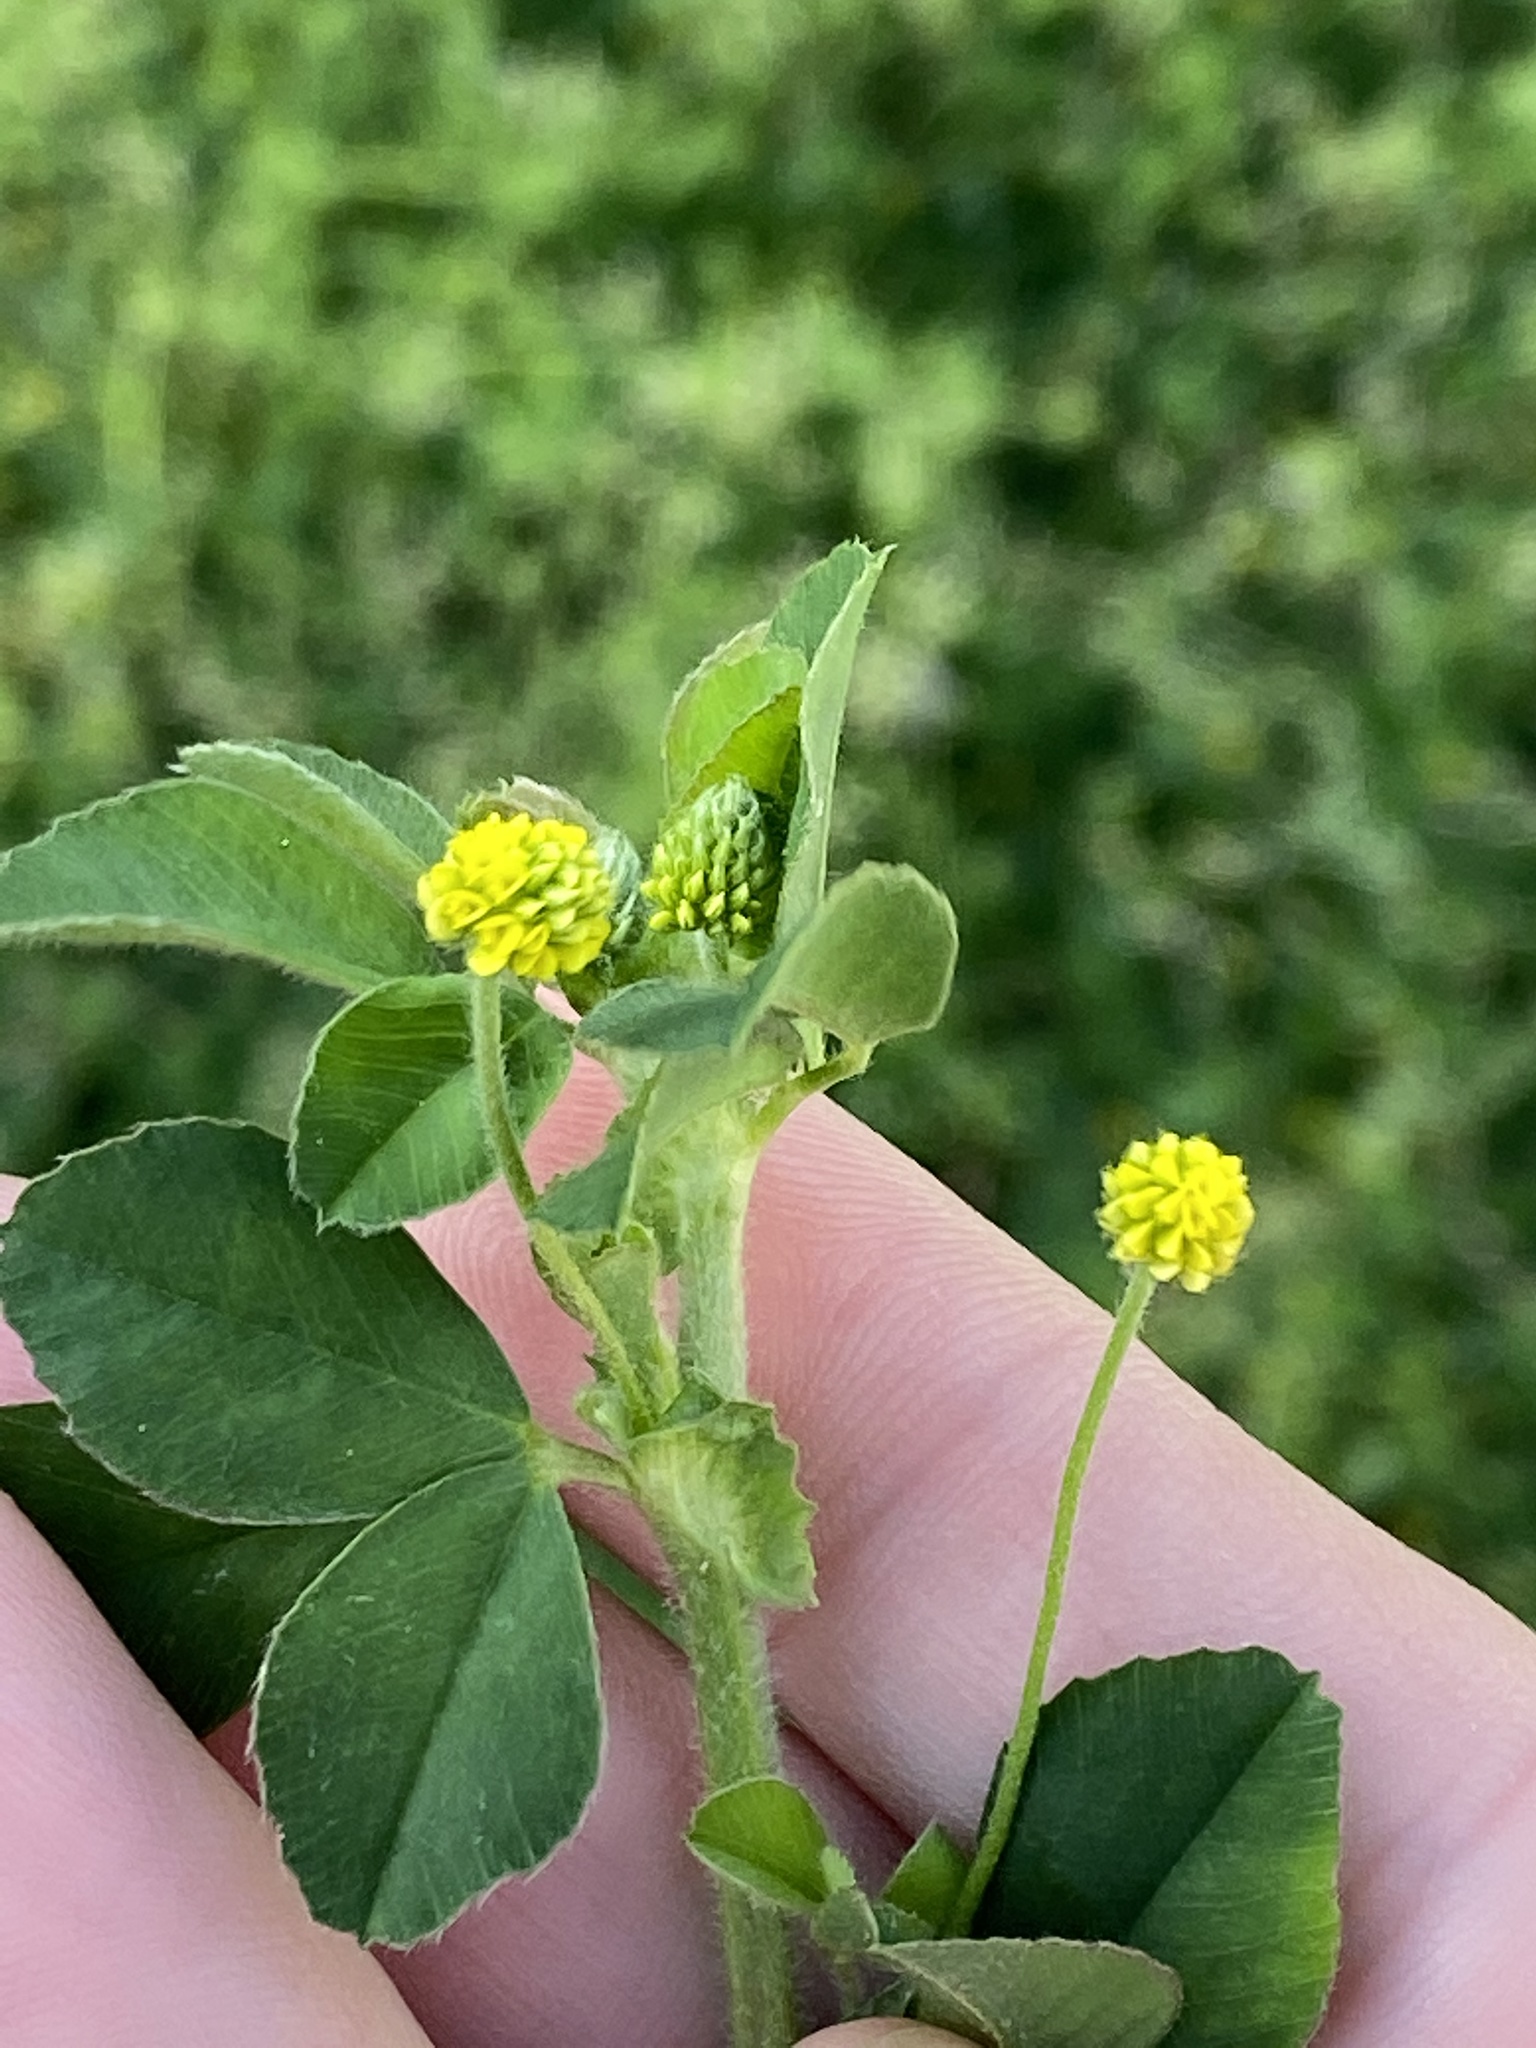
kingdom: Plantae
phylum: Tracheophyta
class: Magnoliopsida
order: Fabales
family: Fabaceae
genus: Medicago
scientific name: Medicago lupulina
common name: Black medick
